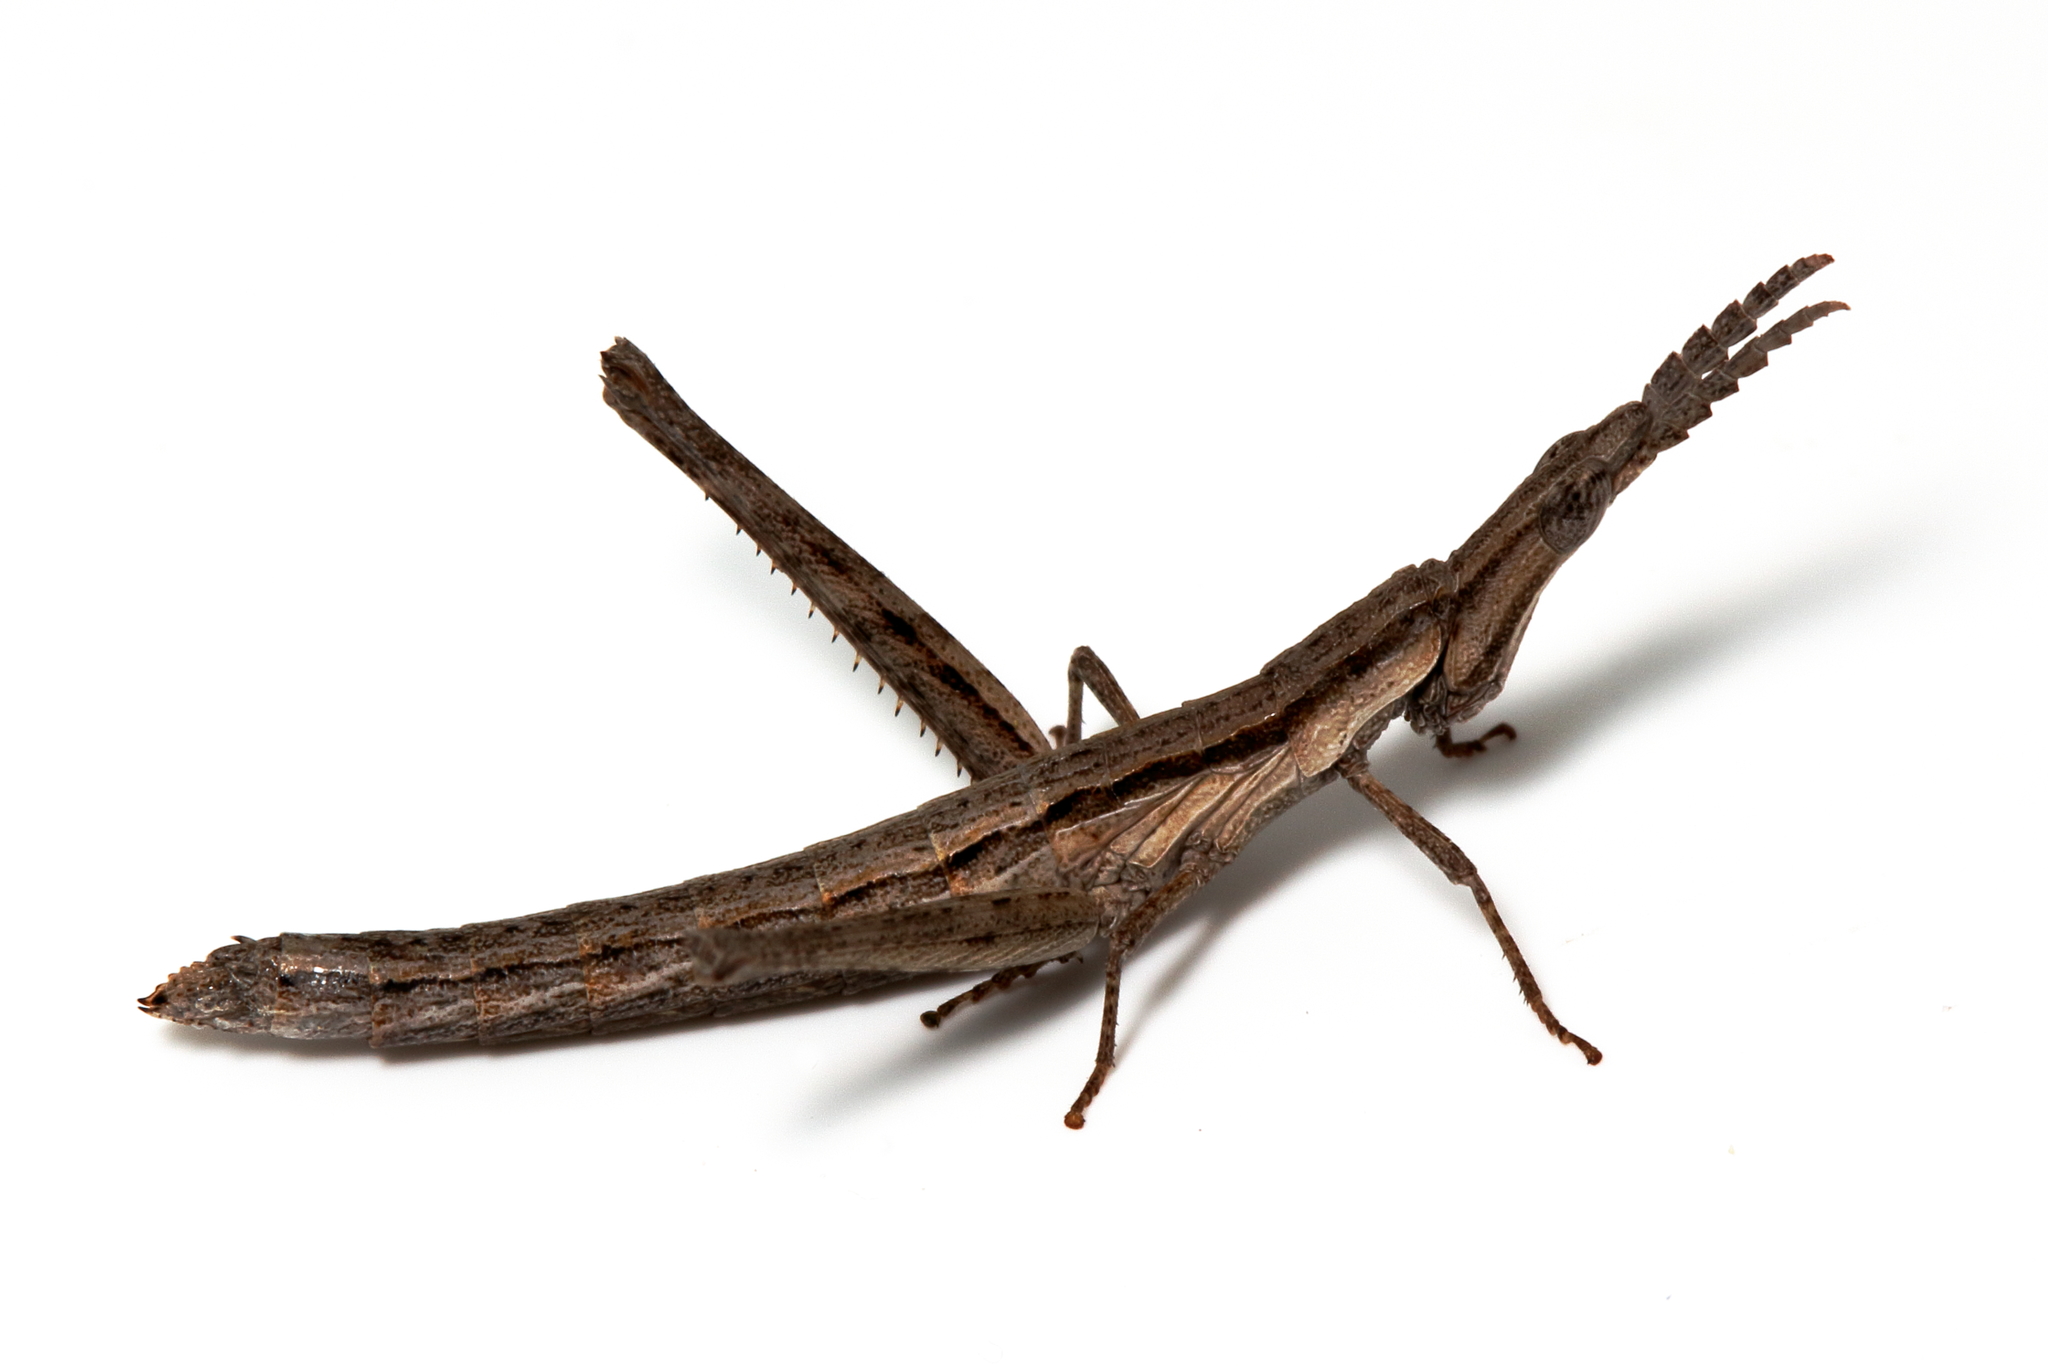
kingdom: Animalia
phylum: Arthropoda
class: Insecta
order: Orthoptera
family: Morabidae
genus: Vandiemenella
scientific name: Vandiemenella viatica
